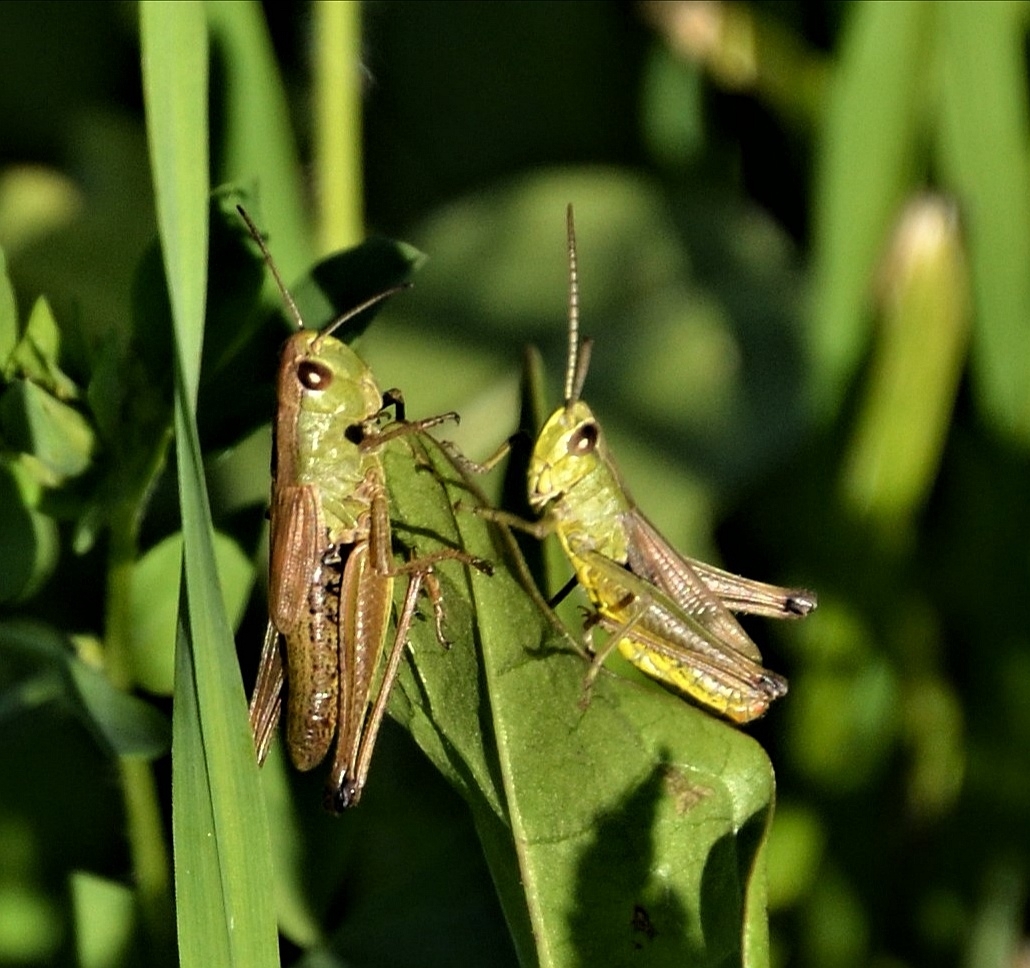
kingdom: Animalia
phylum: Arthropoda
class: Insecta
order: Orthoptera
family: Acrididae
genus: Pseudochorthippus
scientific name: Pseudochorthippus parallelus
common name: Meadow grasshopper
